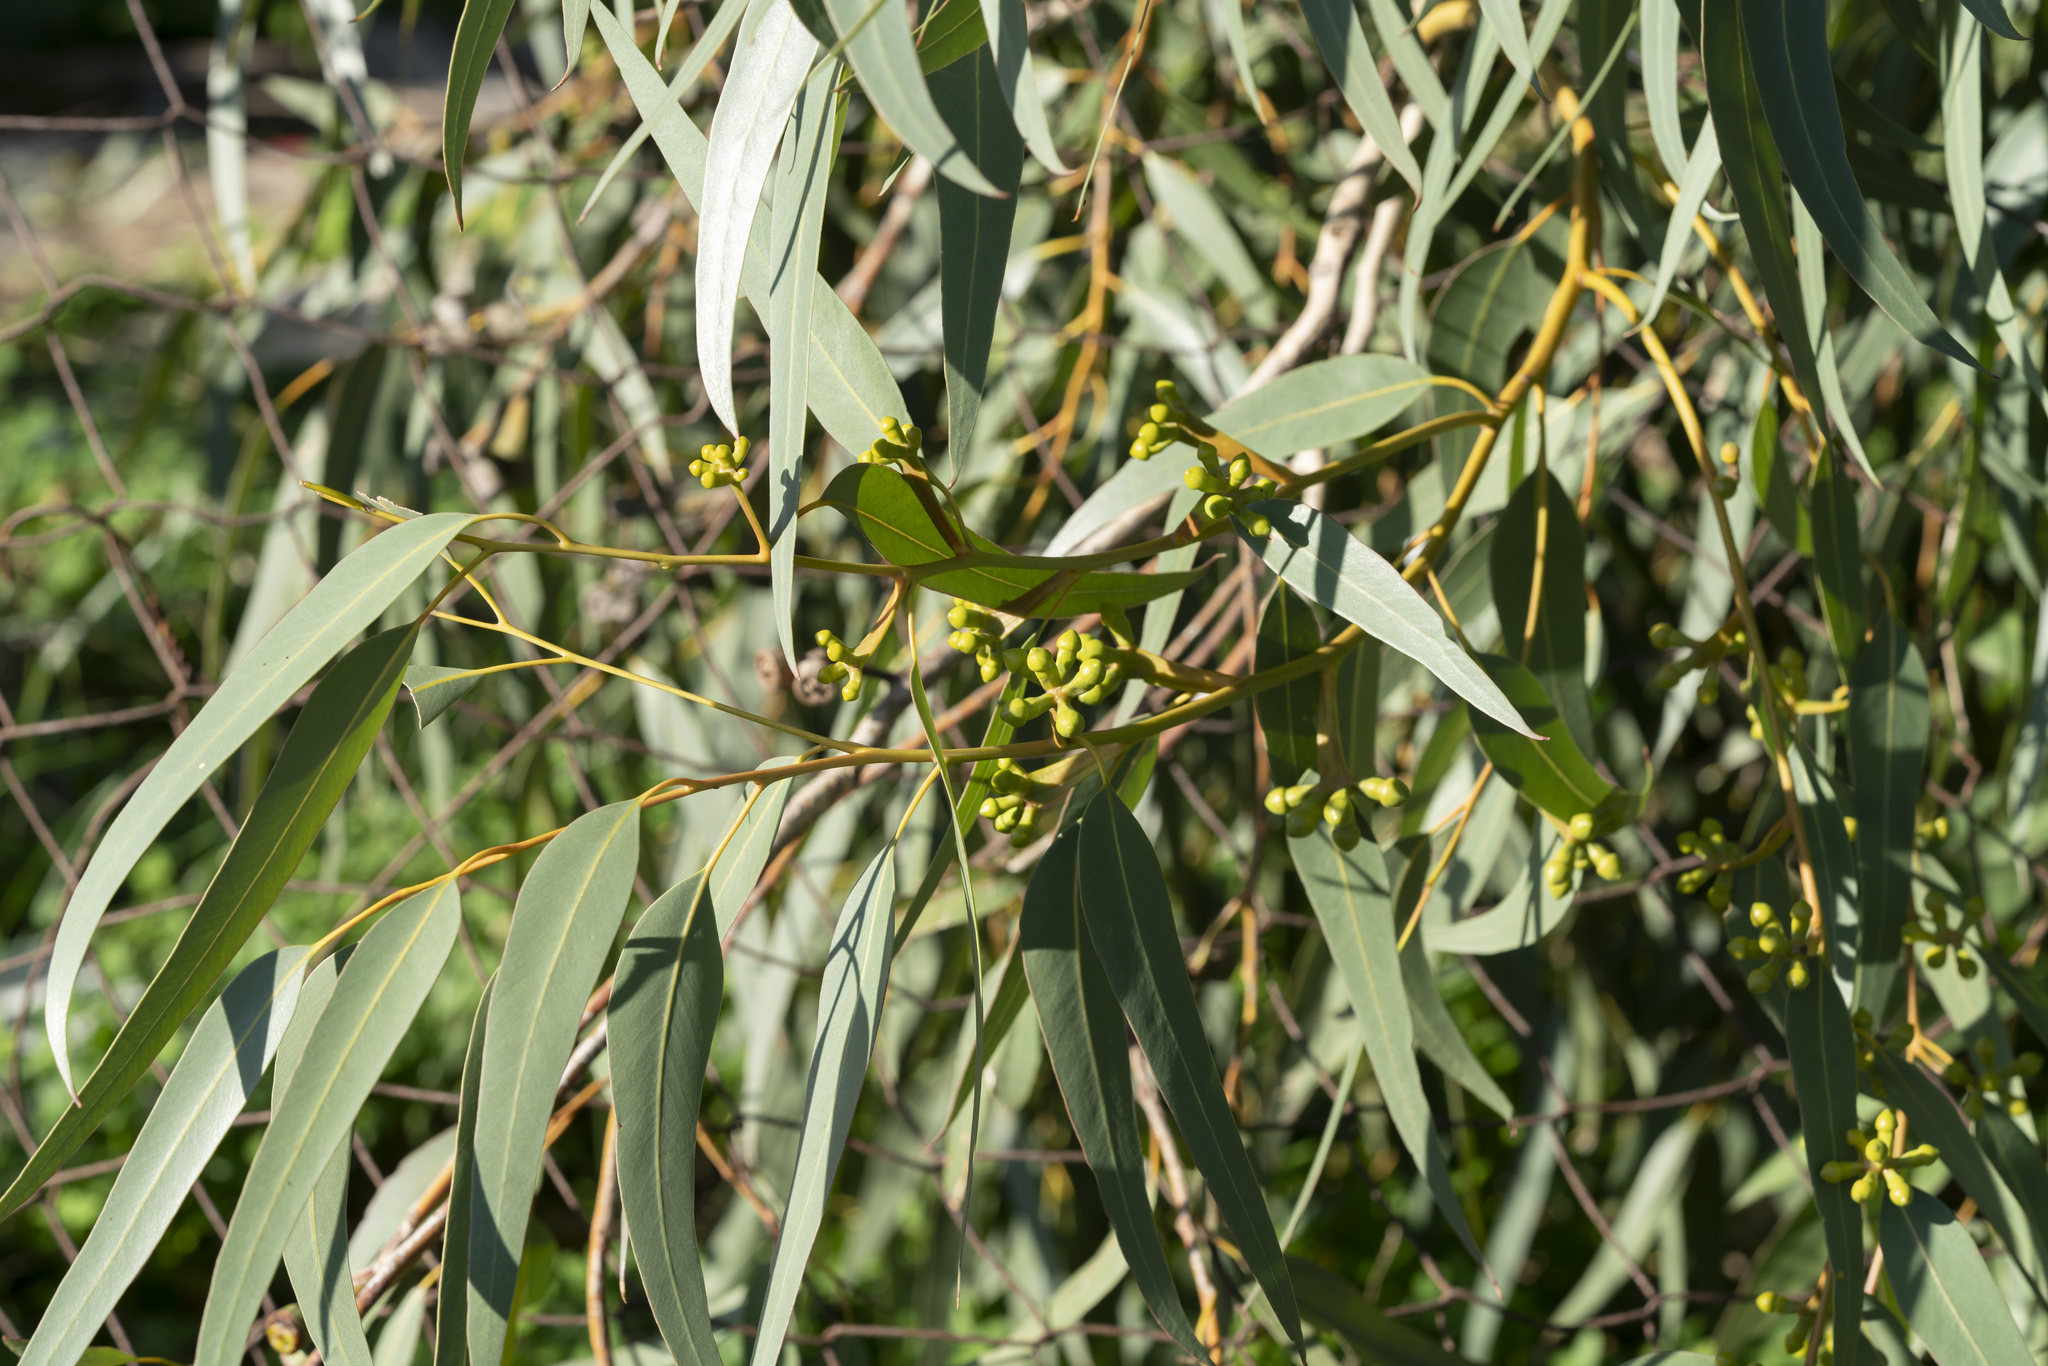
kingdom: Plantae
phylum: Tracheophyta
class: Magnoliopsida
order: Myrtales
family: Myrtaceae
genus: Eucalyptus
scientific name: Eucalyptus
